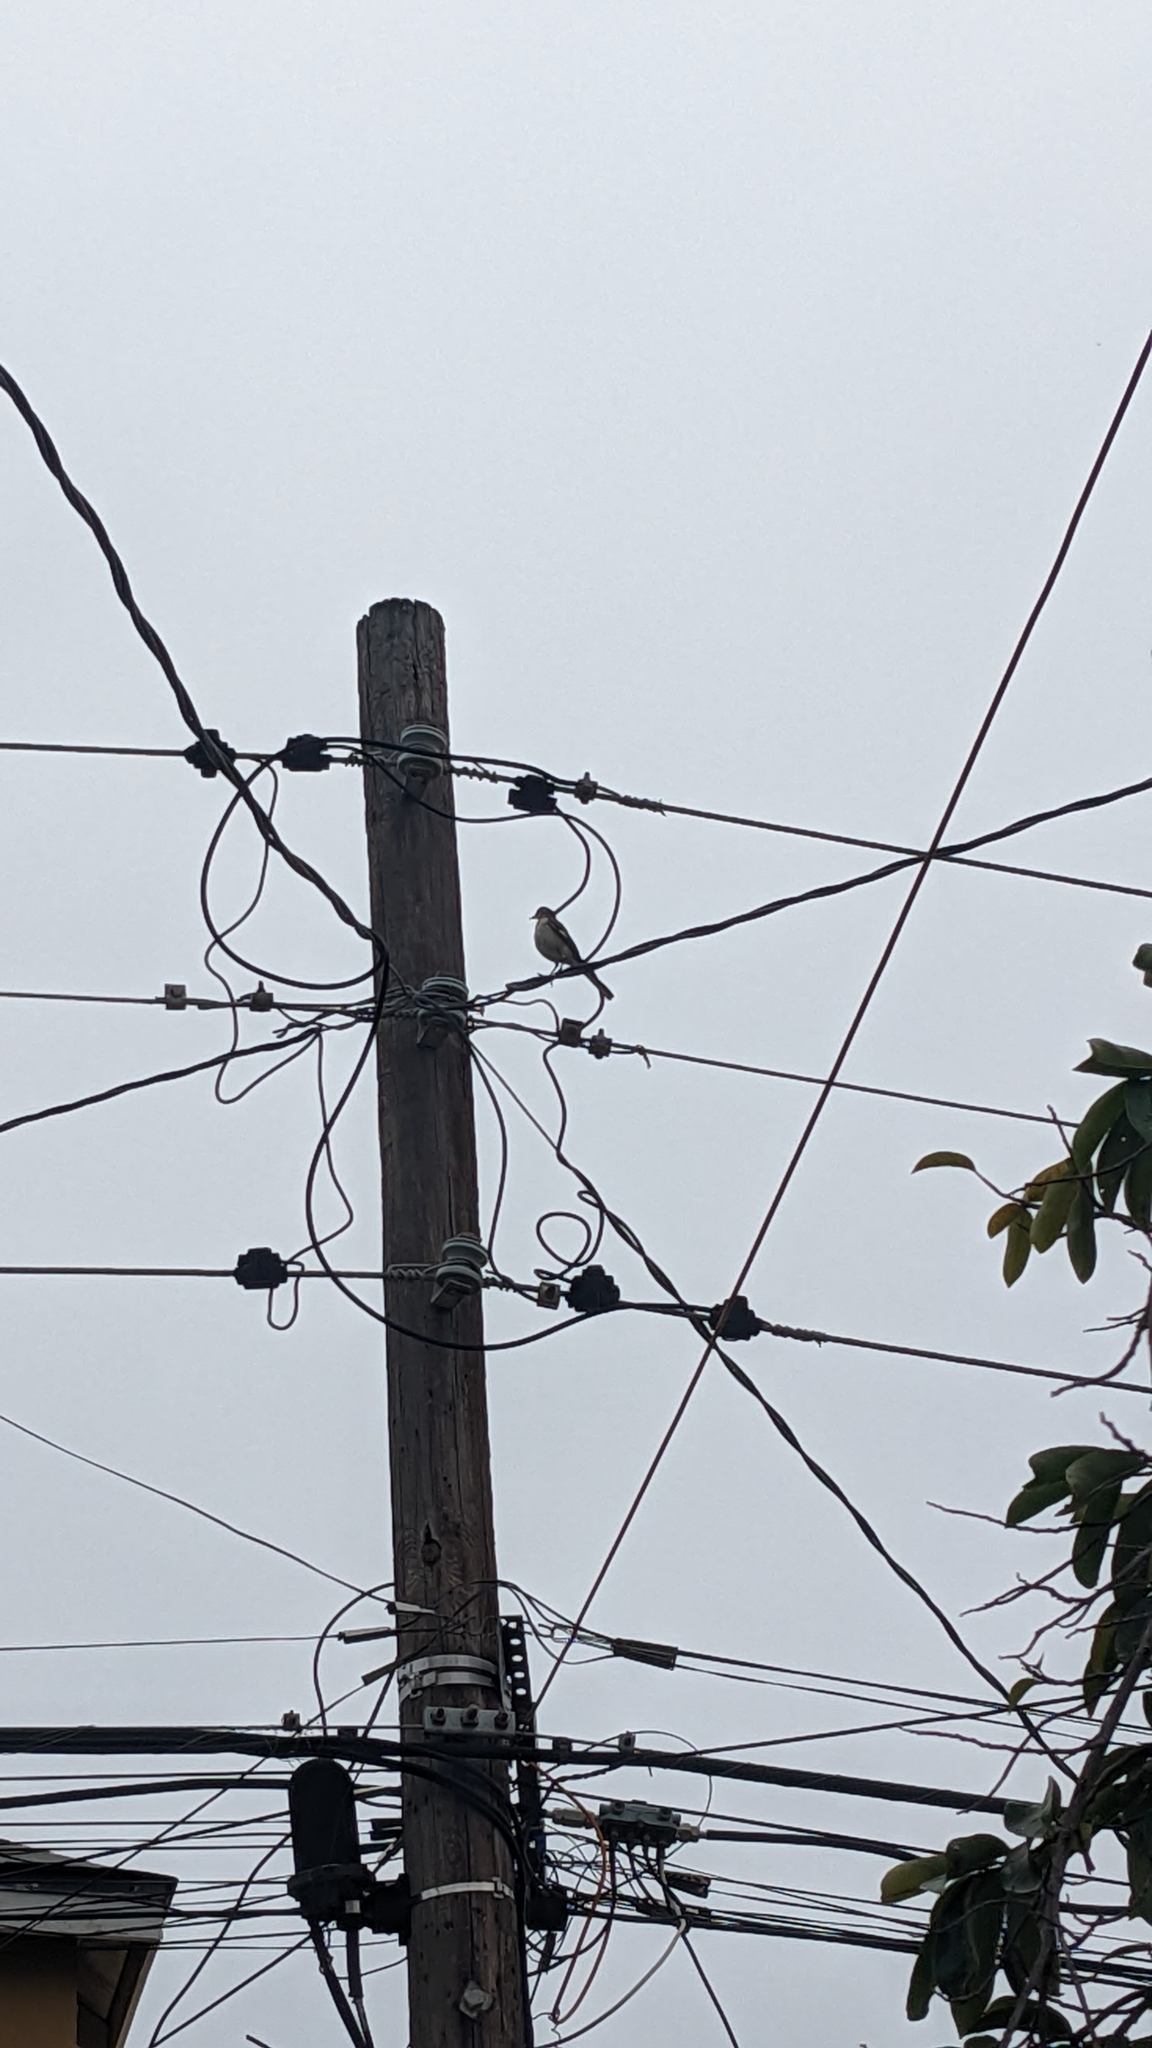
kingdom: Animalia
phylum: Chordata
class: Aves
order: Passeriformes
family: Mimidae
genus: Mimus
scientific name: Mimus polyglottos
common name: Northern mockingbird
